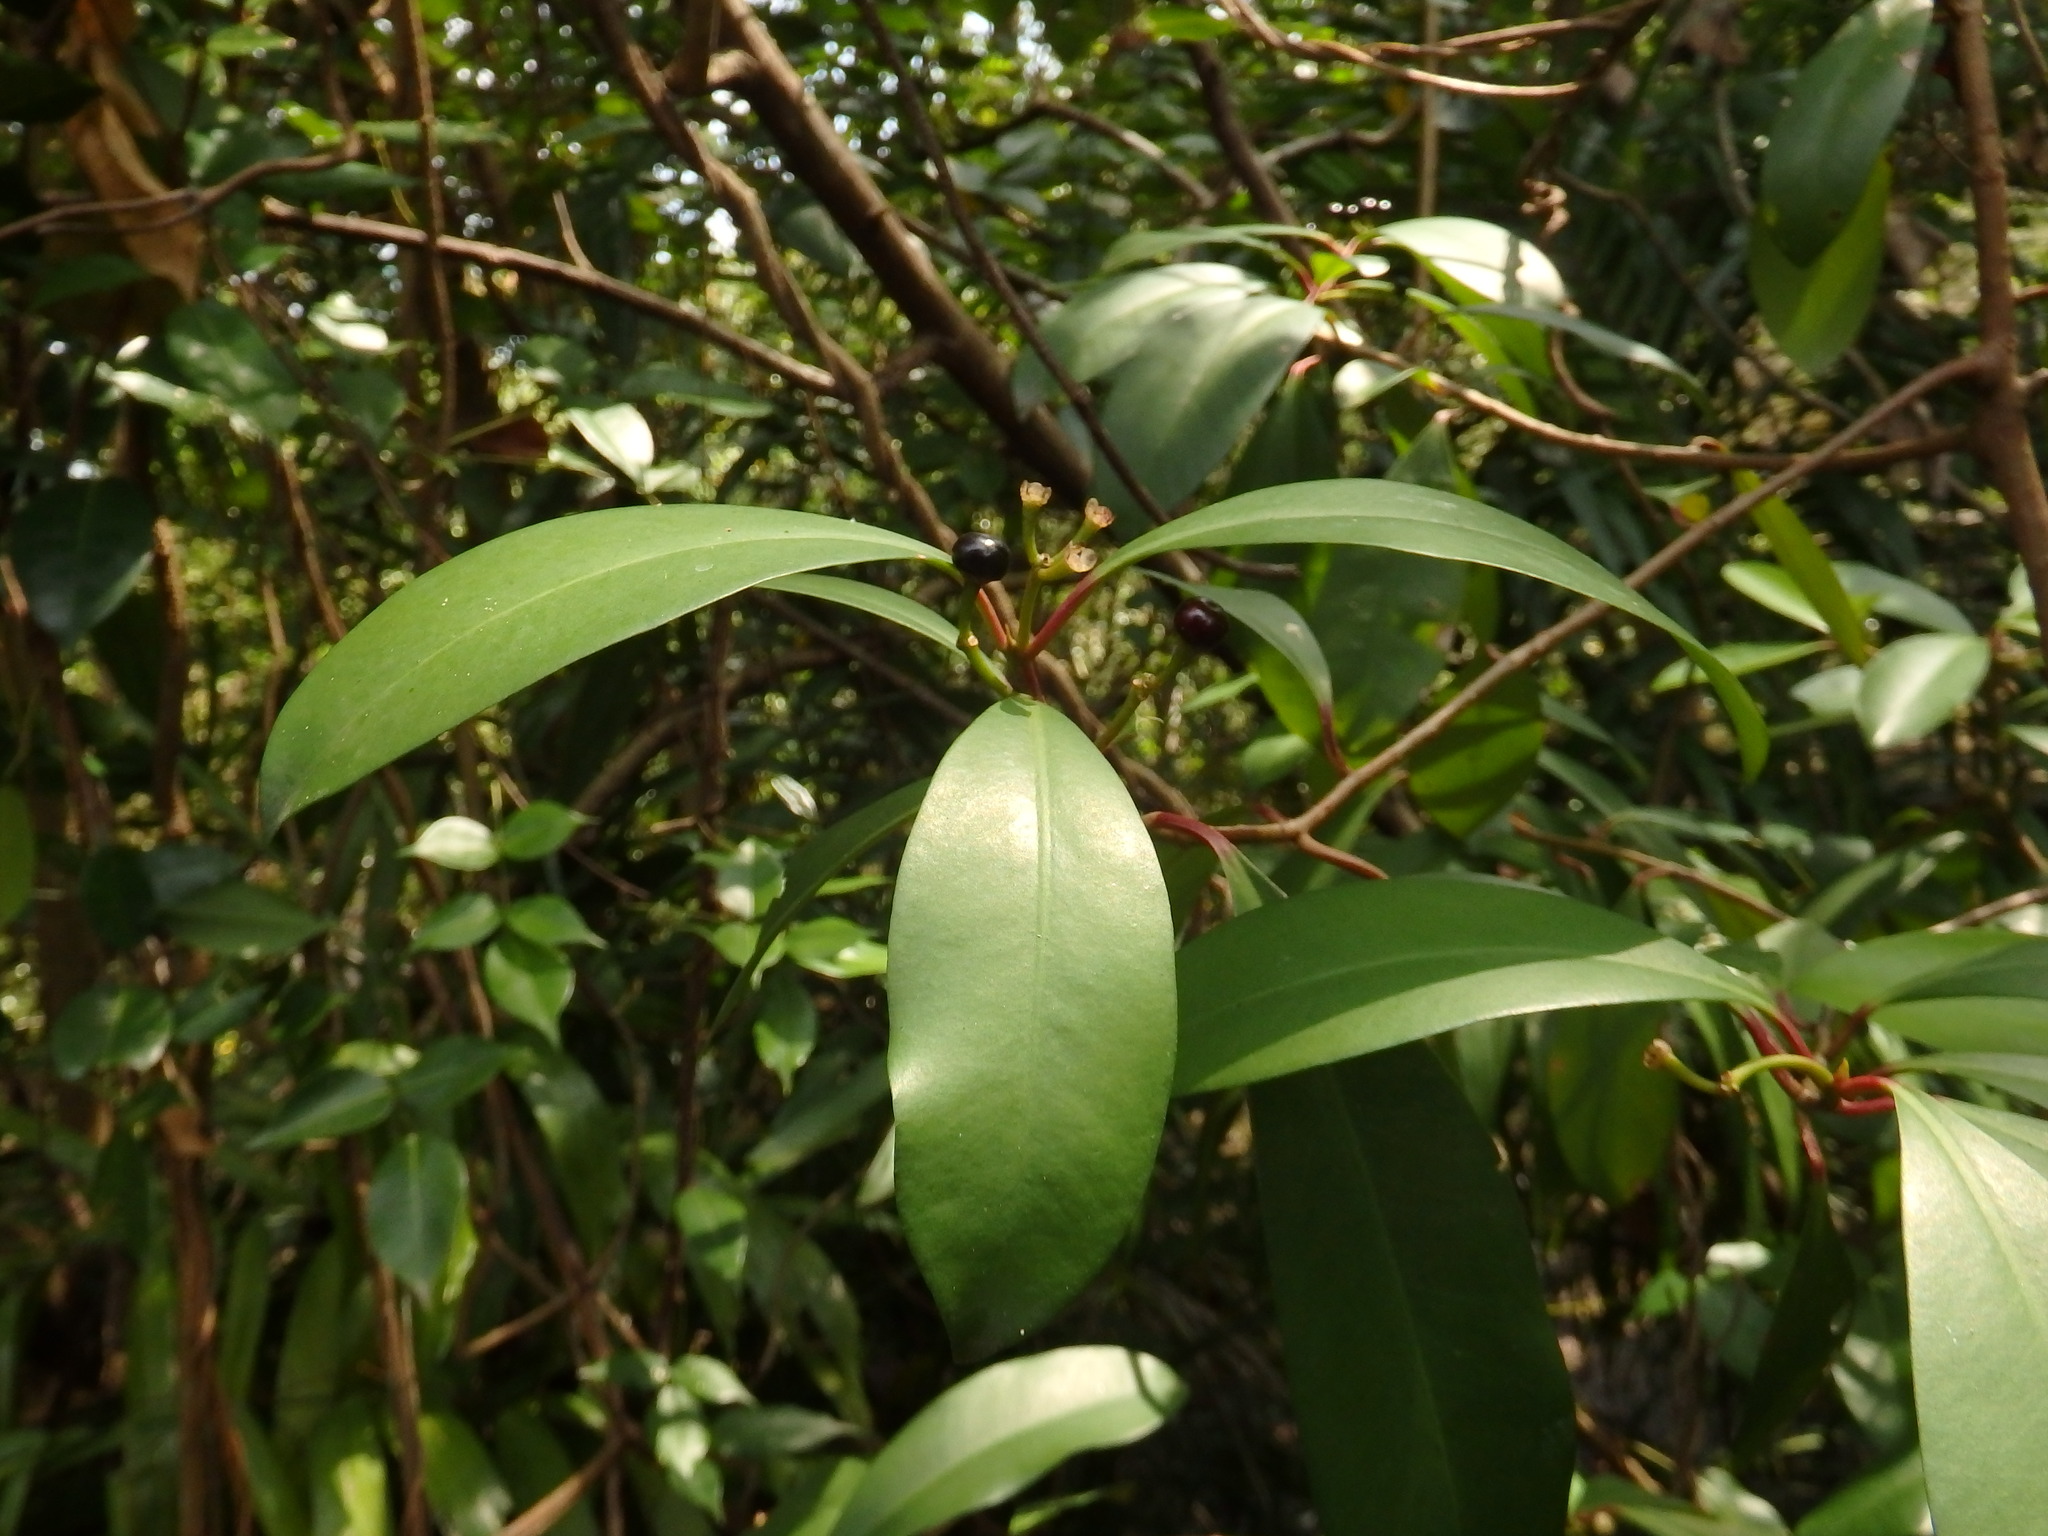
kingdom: Plantae
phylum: Tracheophyta
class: Magnoliopsida
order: Ericales
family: Primulaceae
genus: Ardisia
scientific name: Ardisia elliptica
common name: Shoebutton
